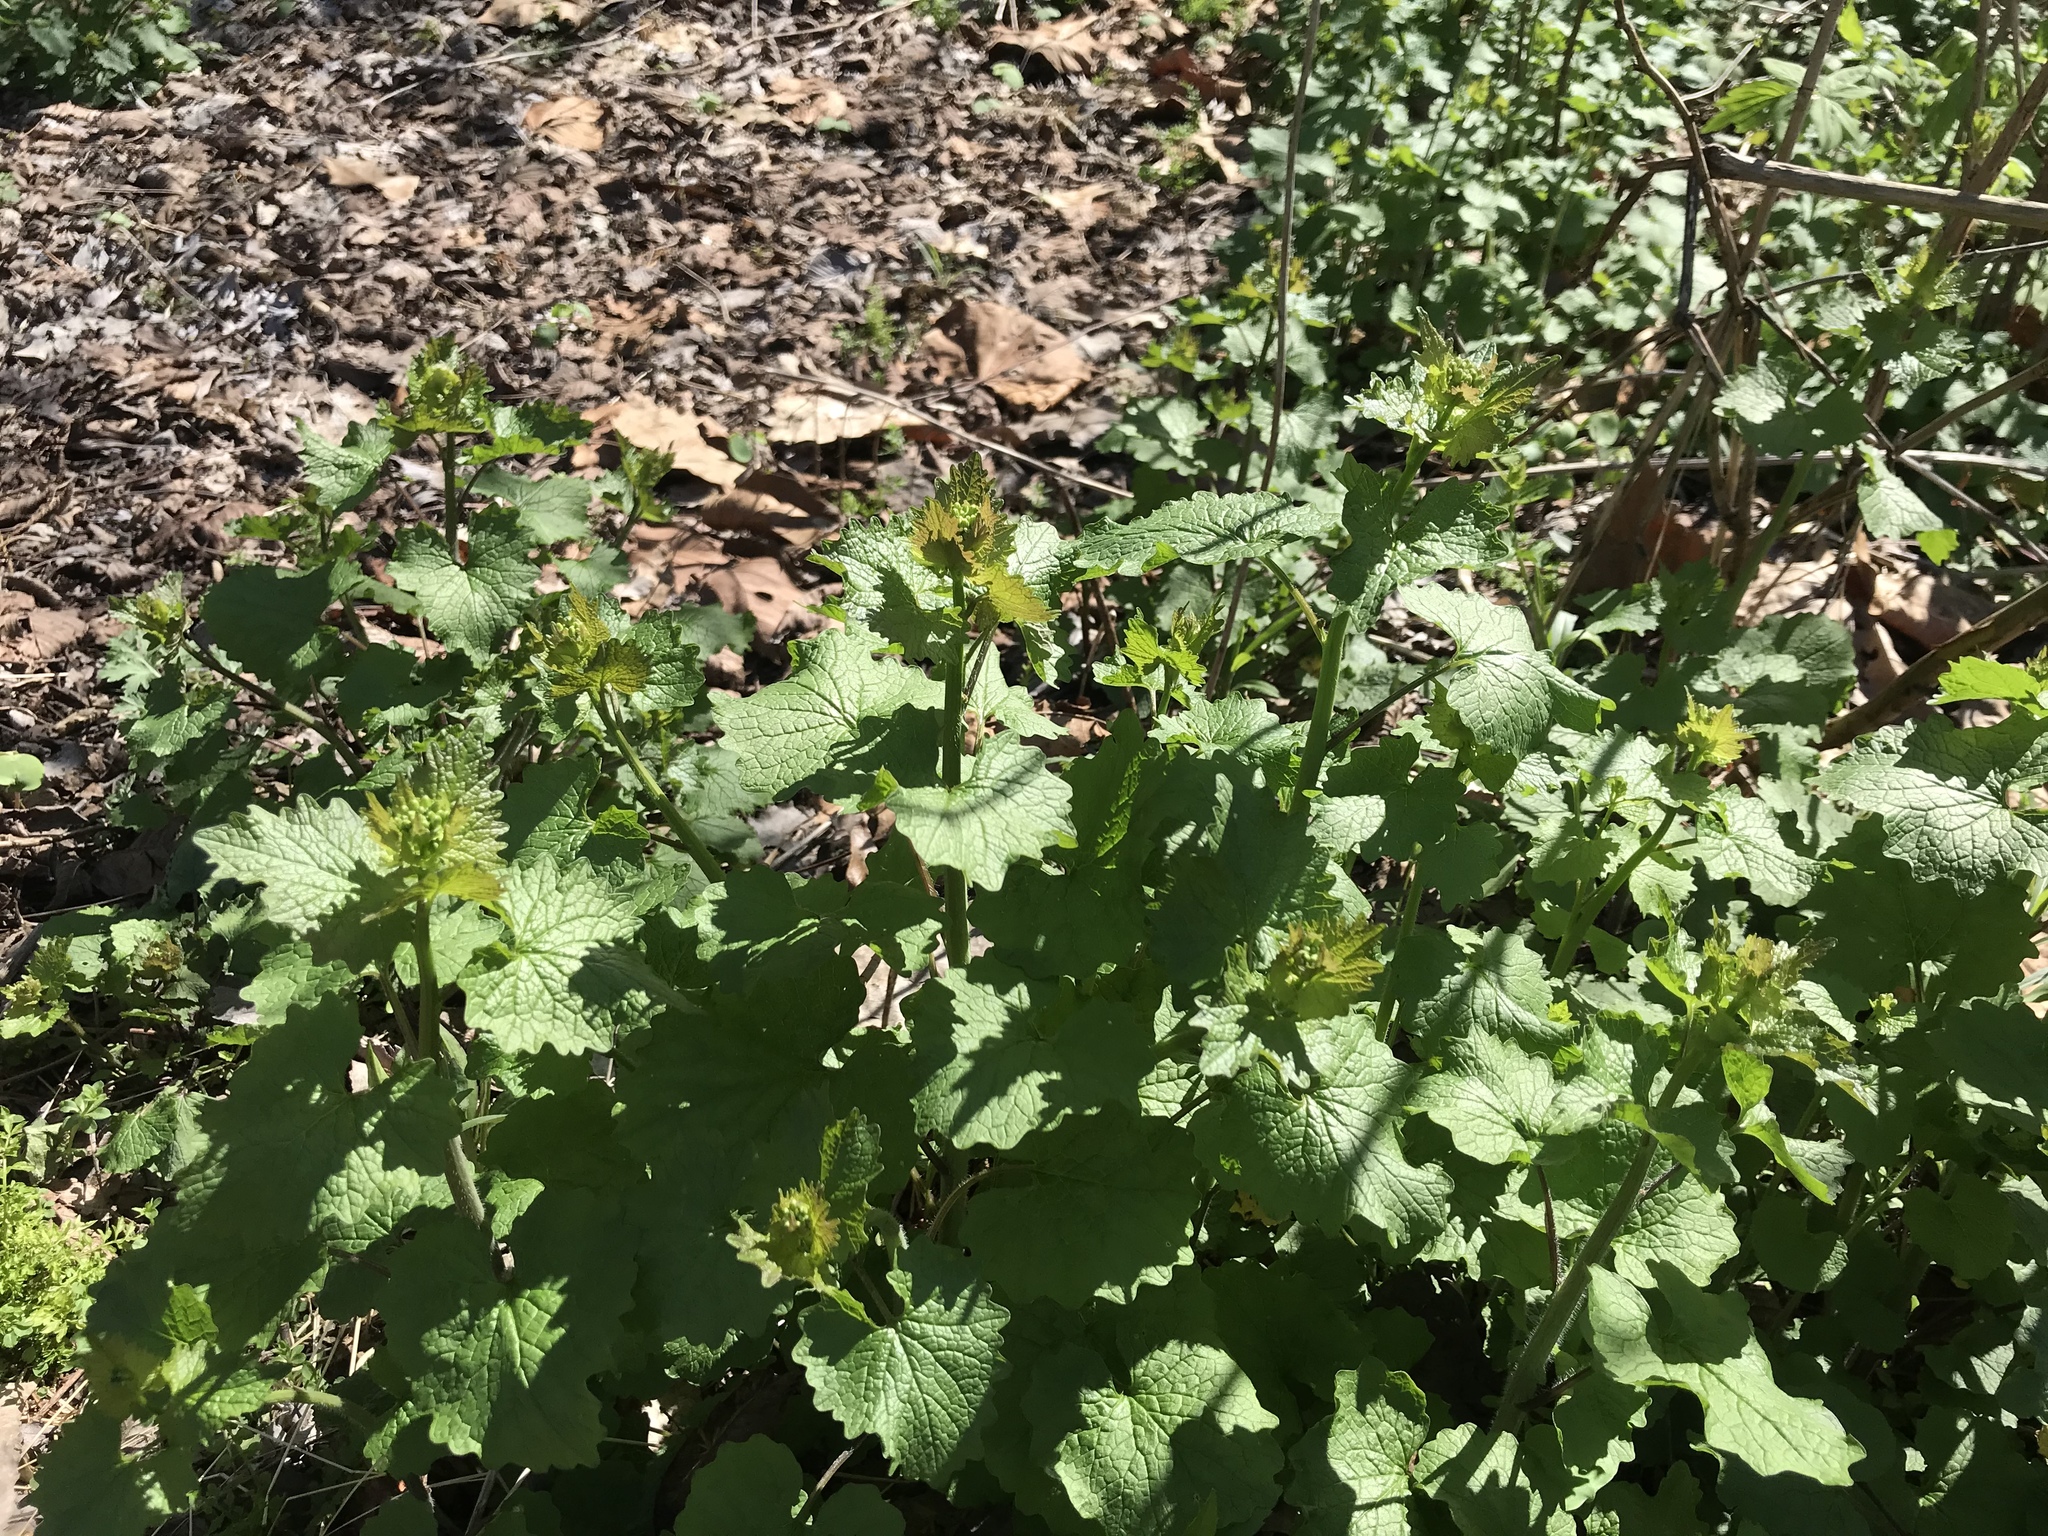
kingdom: Plantae
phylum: Tracheophyta
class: Magnoliopsida
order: Brassicales
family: Brassicaceae
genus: Alliaria
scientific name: Alliaria petiolata
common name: Garlic mustard
